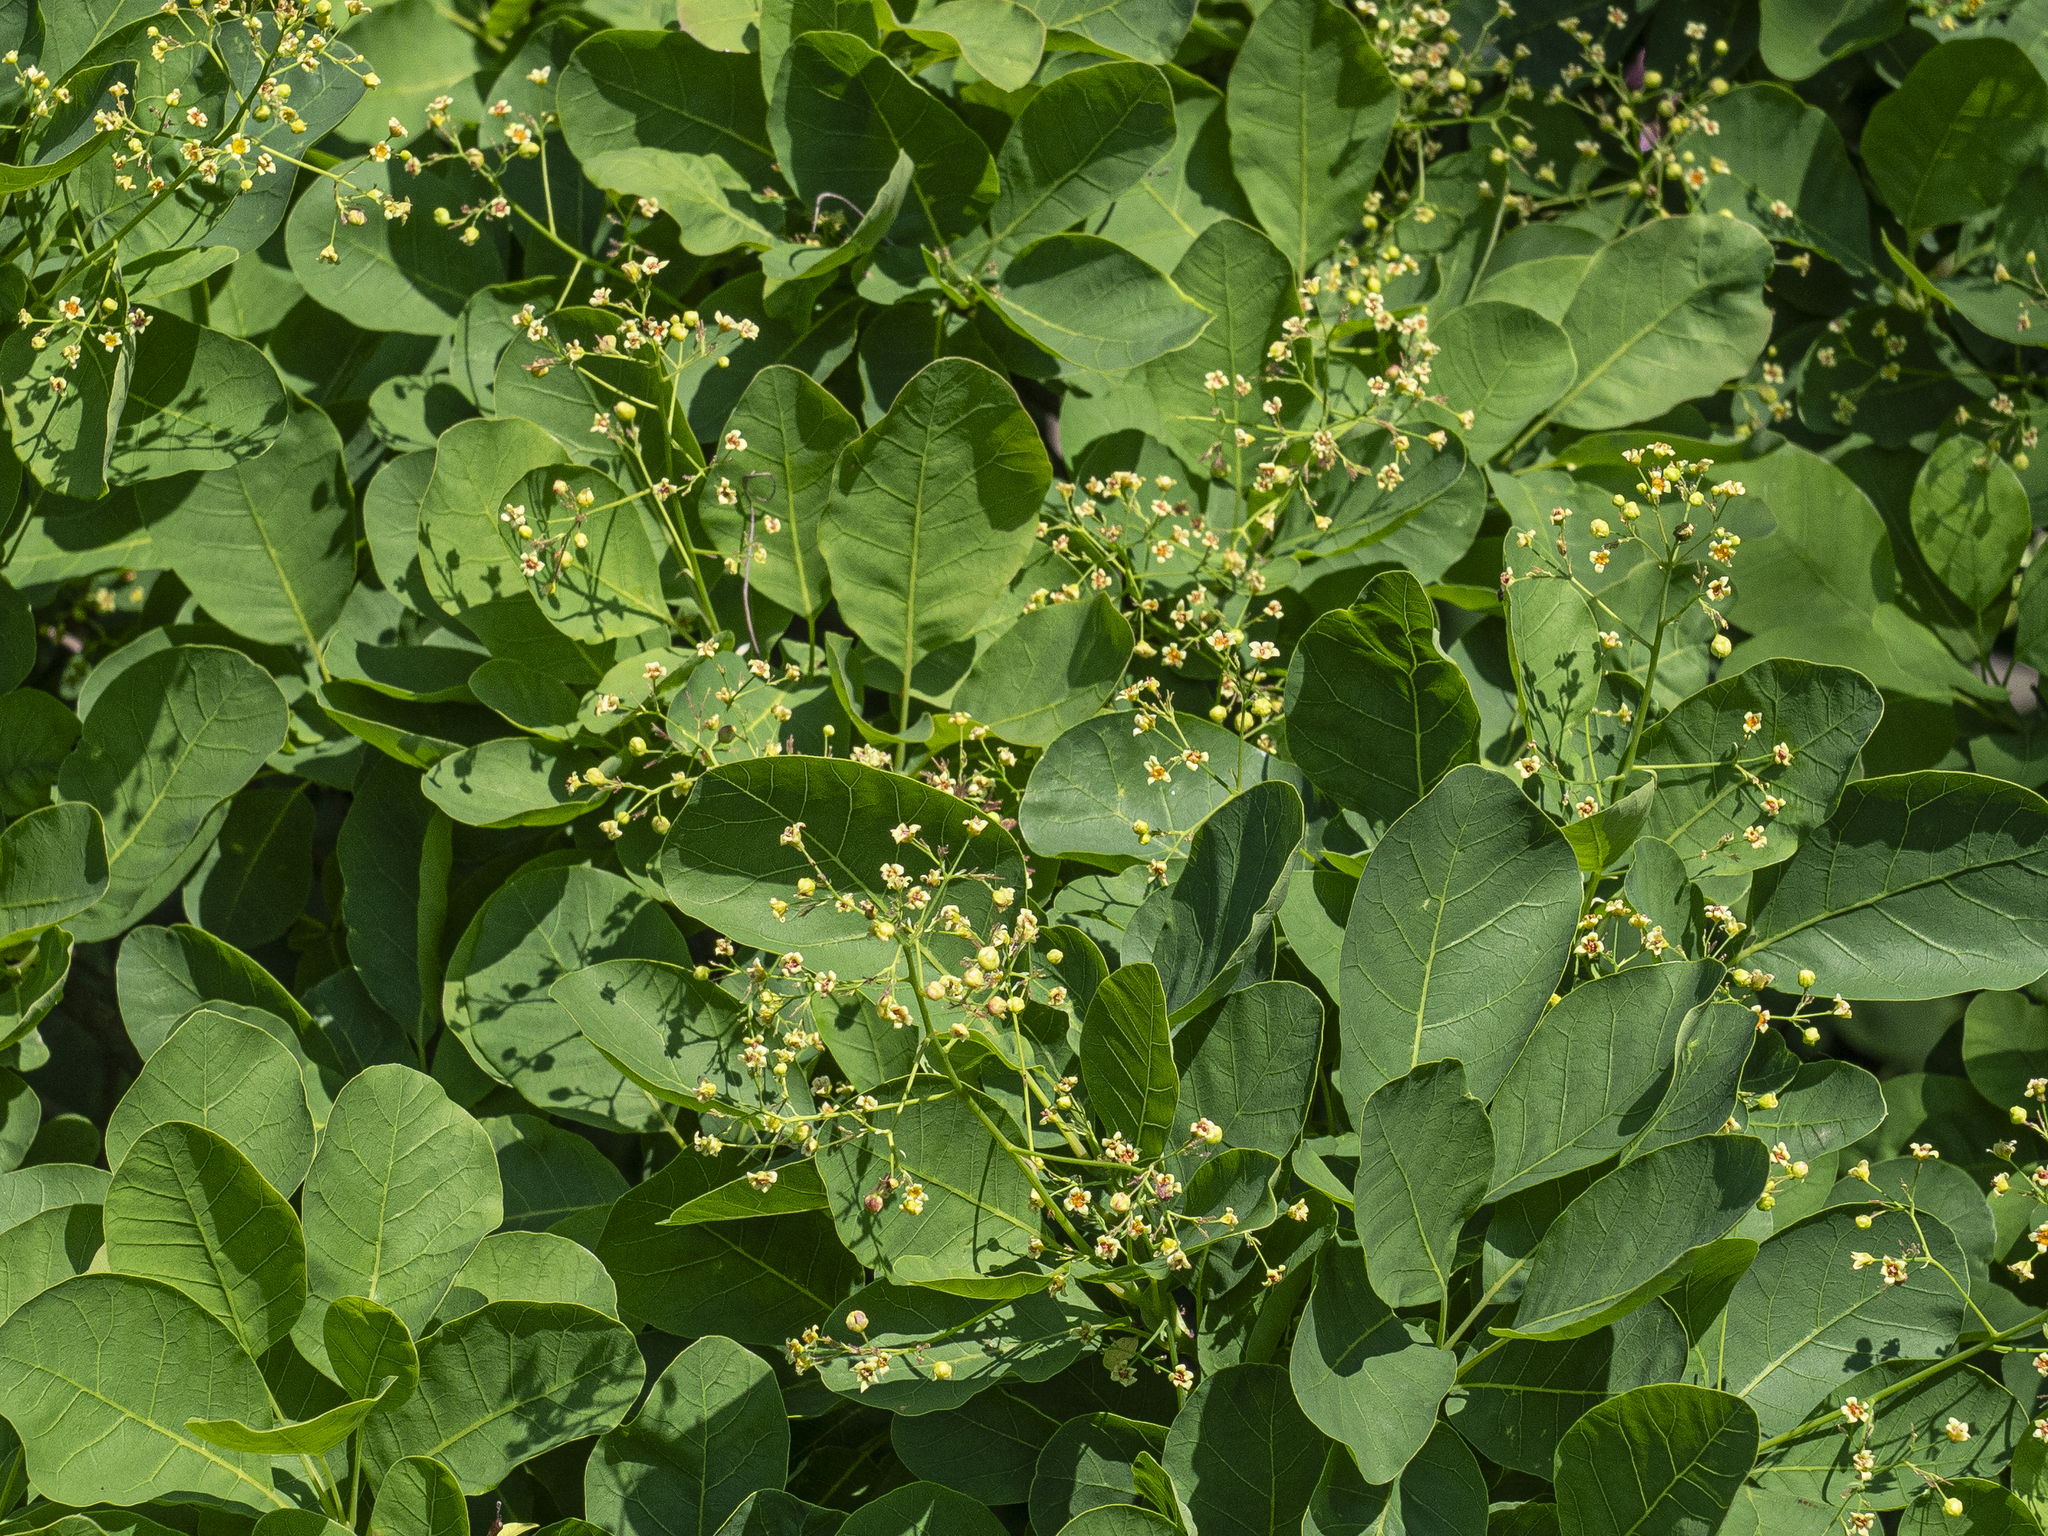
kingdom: Plantae
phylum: Tracheophyta
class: Magnoliopsida
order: Sapindales
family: Anacardiaceae
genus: Cotinus
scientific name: Cotinus coggygria
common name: Smoke-tree
